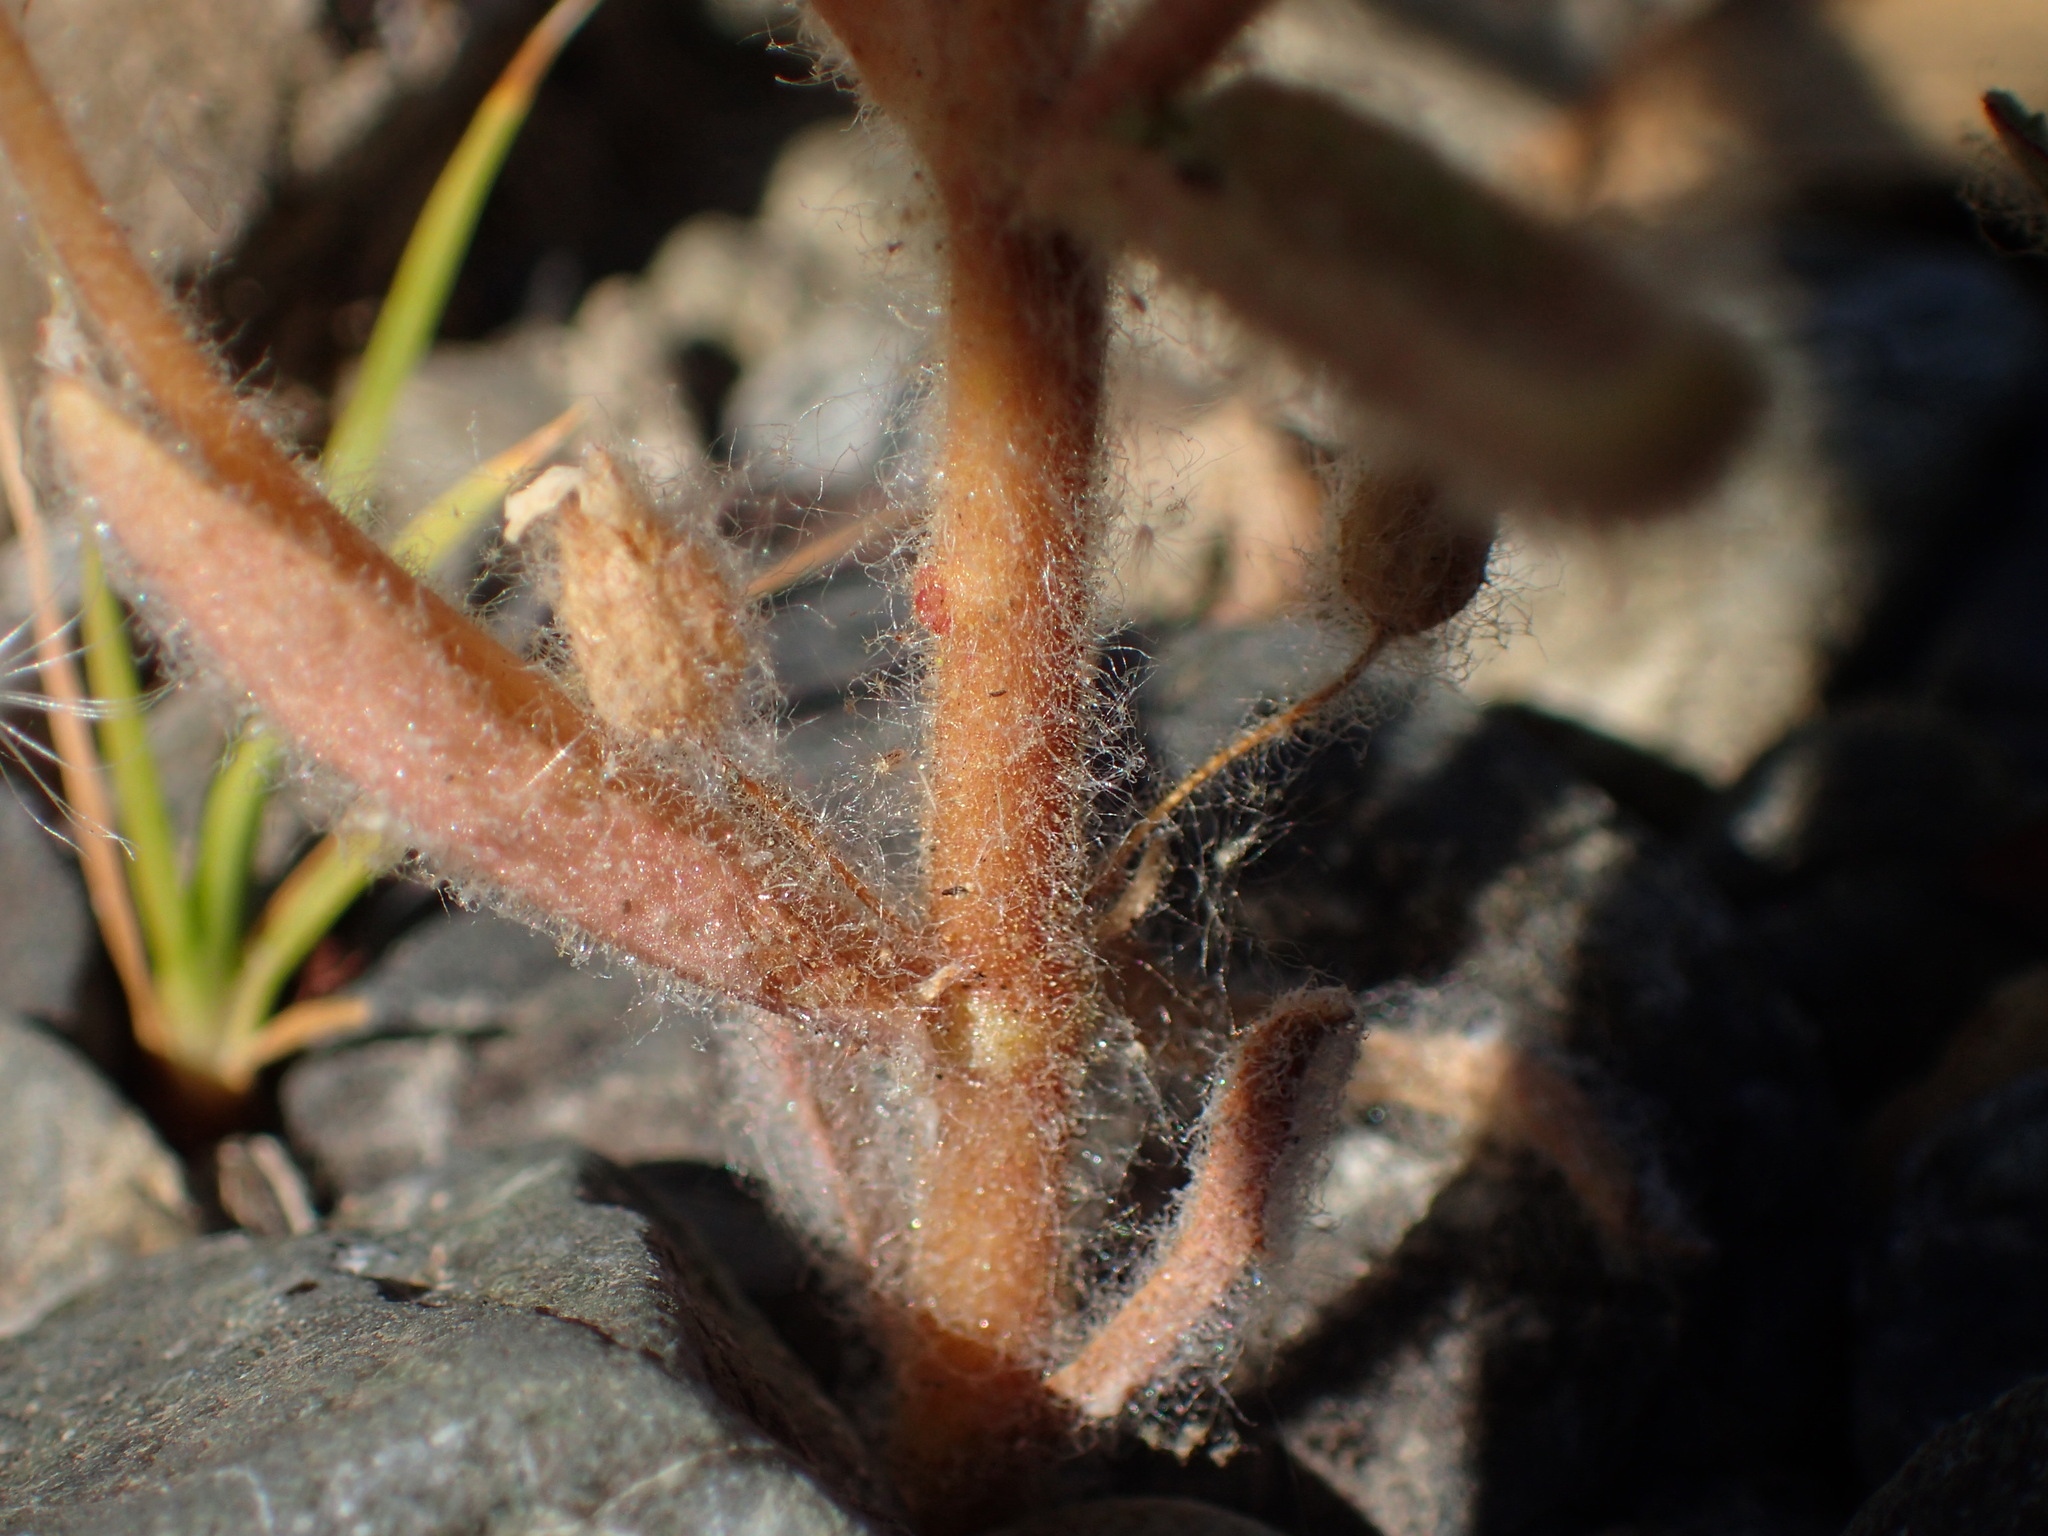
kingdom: Plantae
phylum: Tracheophyta
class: Magnoliopsida
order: Lamiales
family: Phrymaceae
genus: Mimetanthe
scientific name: Mimetanthe pilosa
